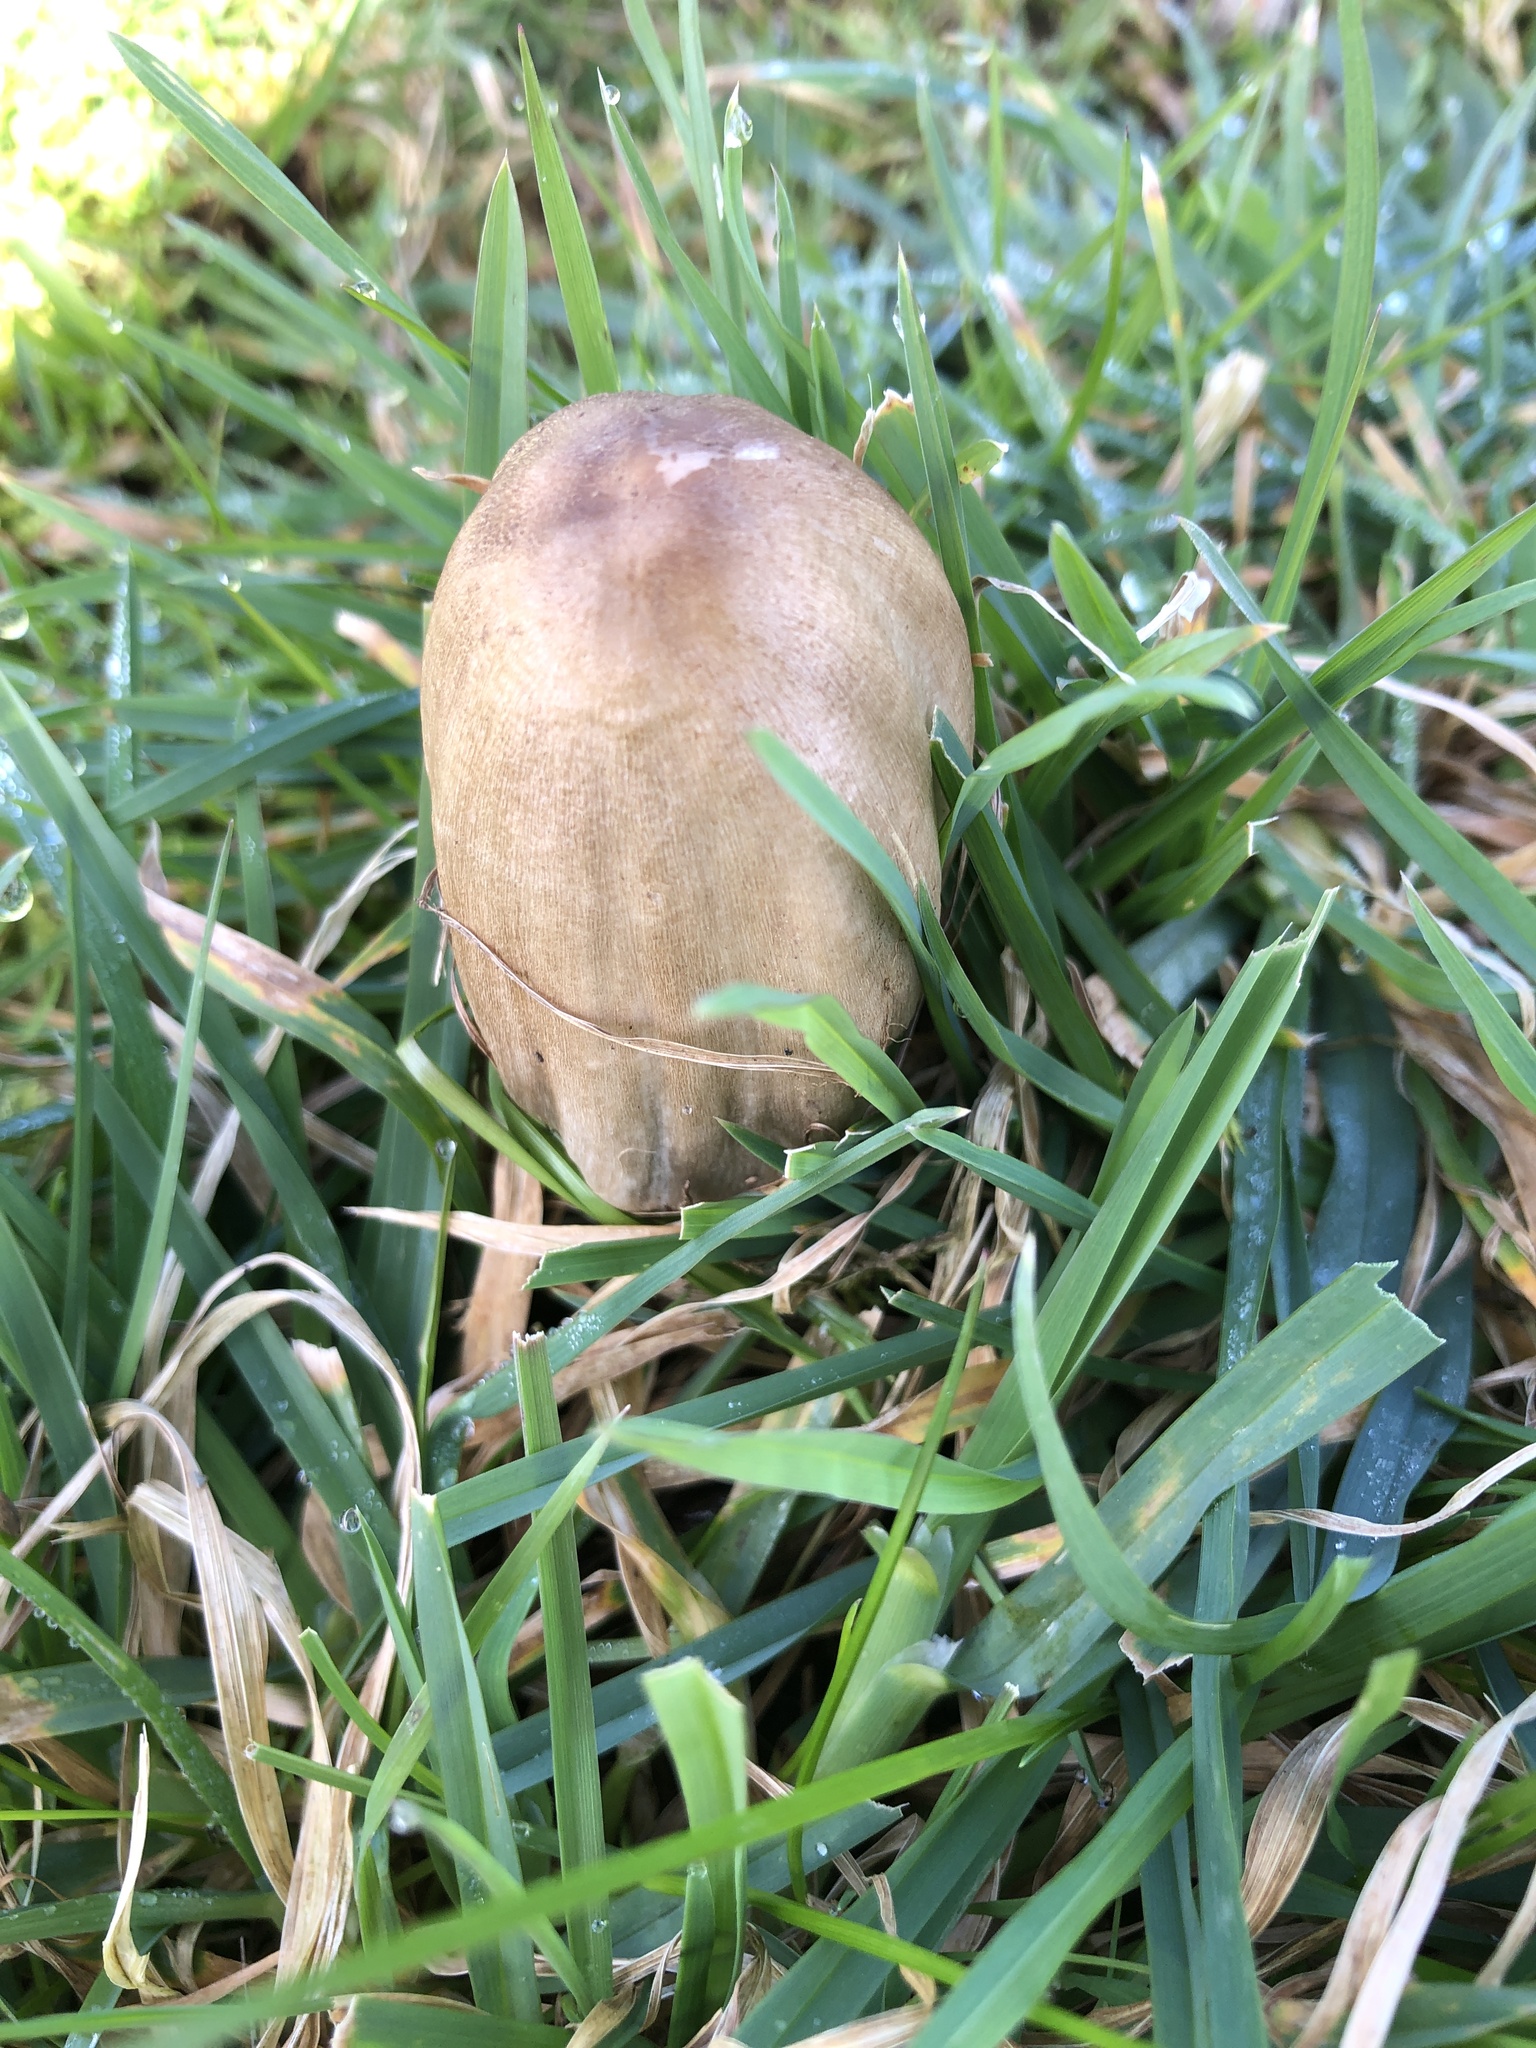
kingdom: Fungi
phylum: Basidiomycota
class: Agaricomycetes
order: Agaricales
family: Psathyrellaceae
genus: Coprinopsis
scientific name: Coprinopsis atramentaria
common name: Common ink-cap
